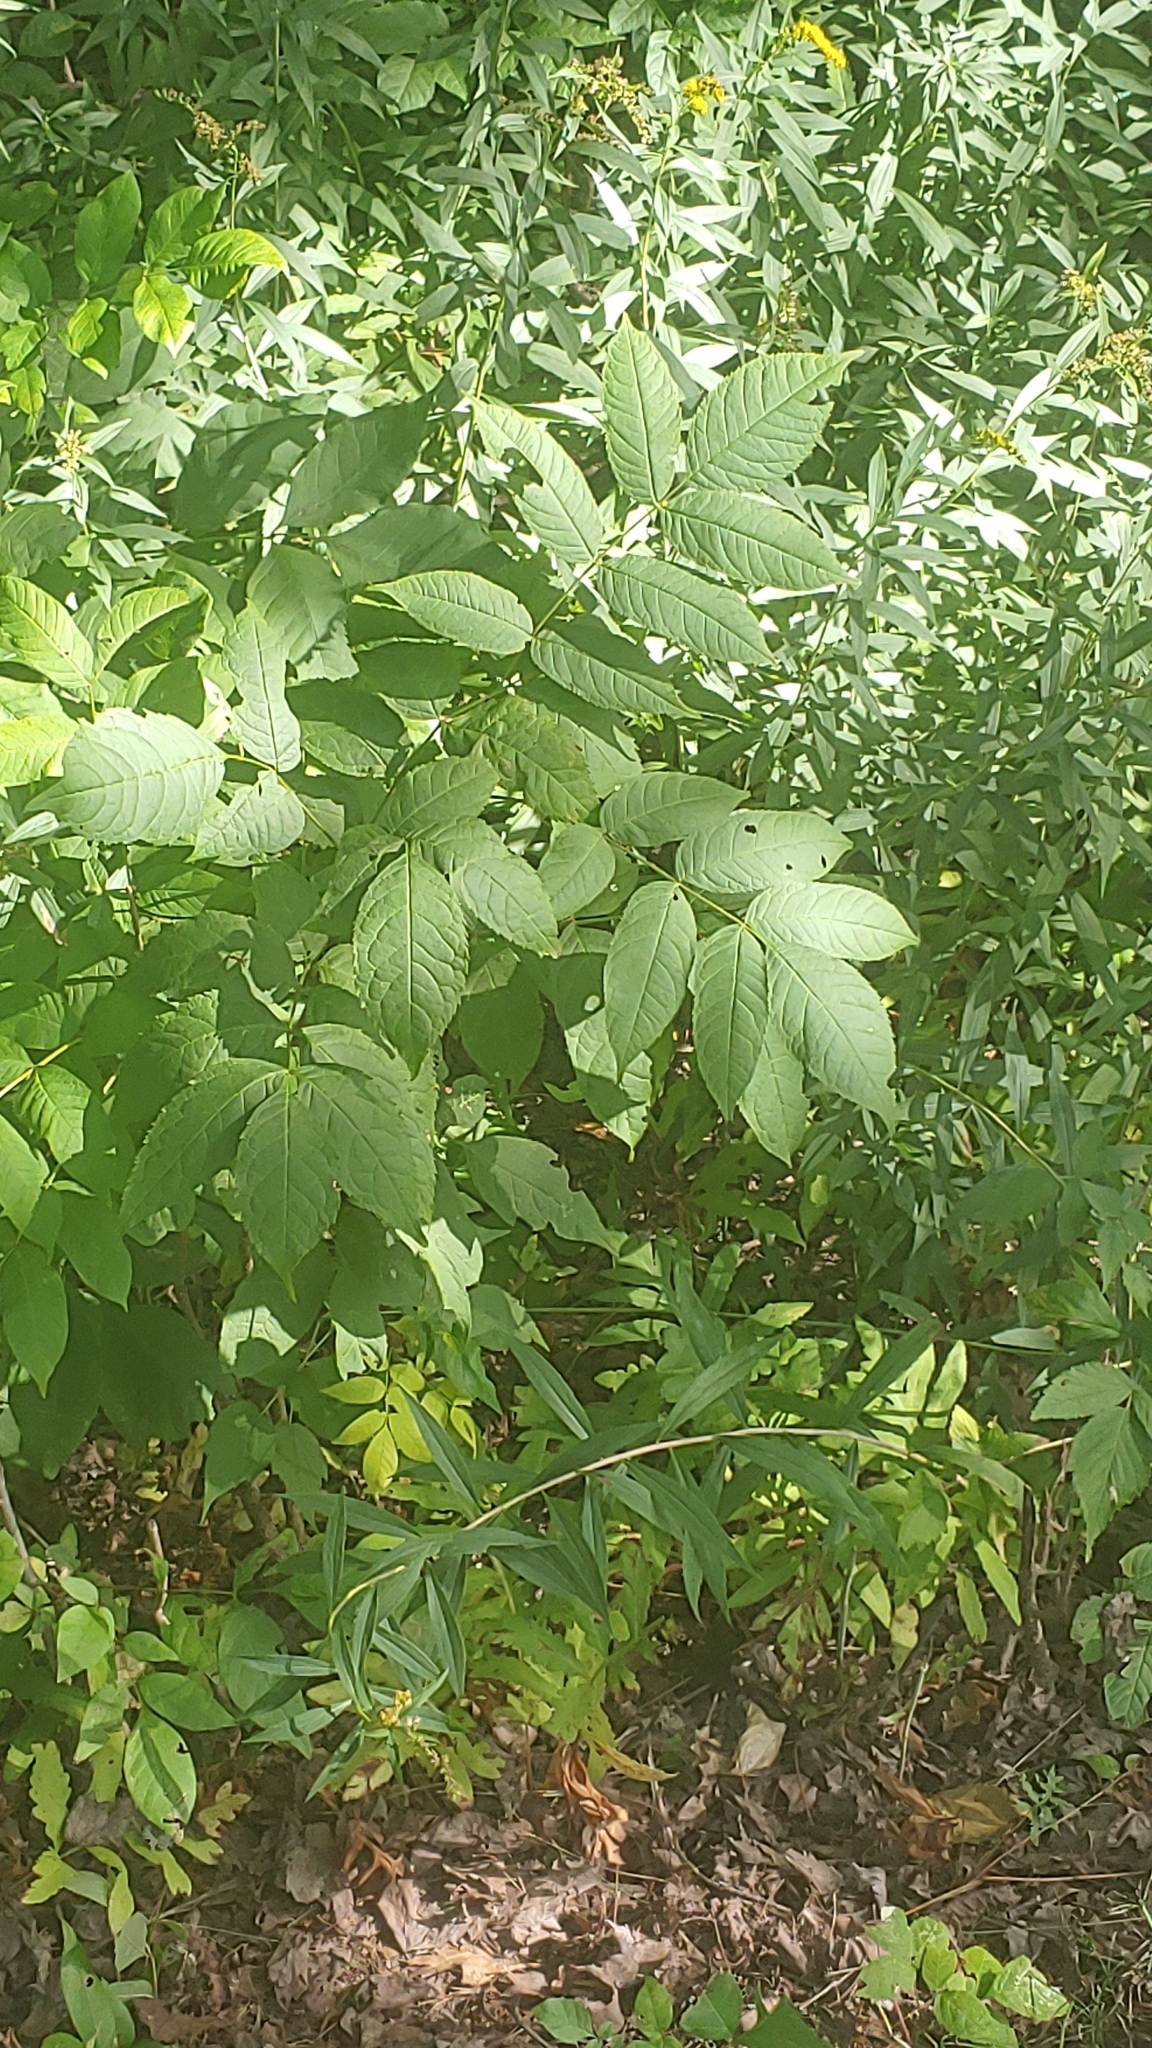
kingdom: Plantae
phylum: Tracheophyta
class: Magnoliopsida
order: Lamiales
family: Oleaceae
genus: Fraxinus
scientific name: Fraxinus nigra
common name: Black ash
